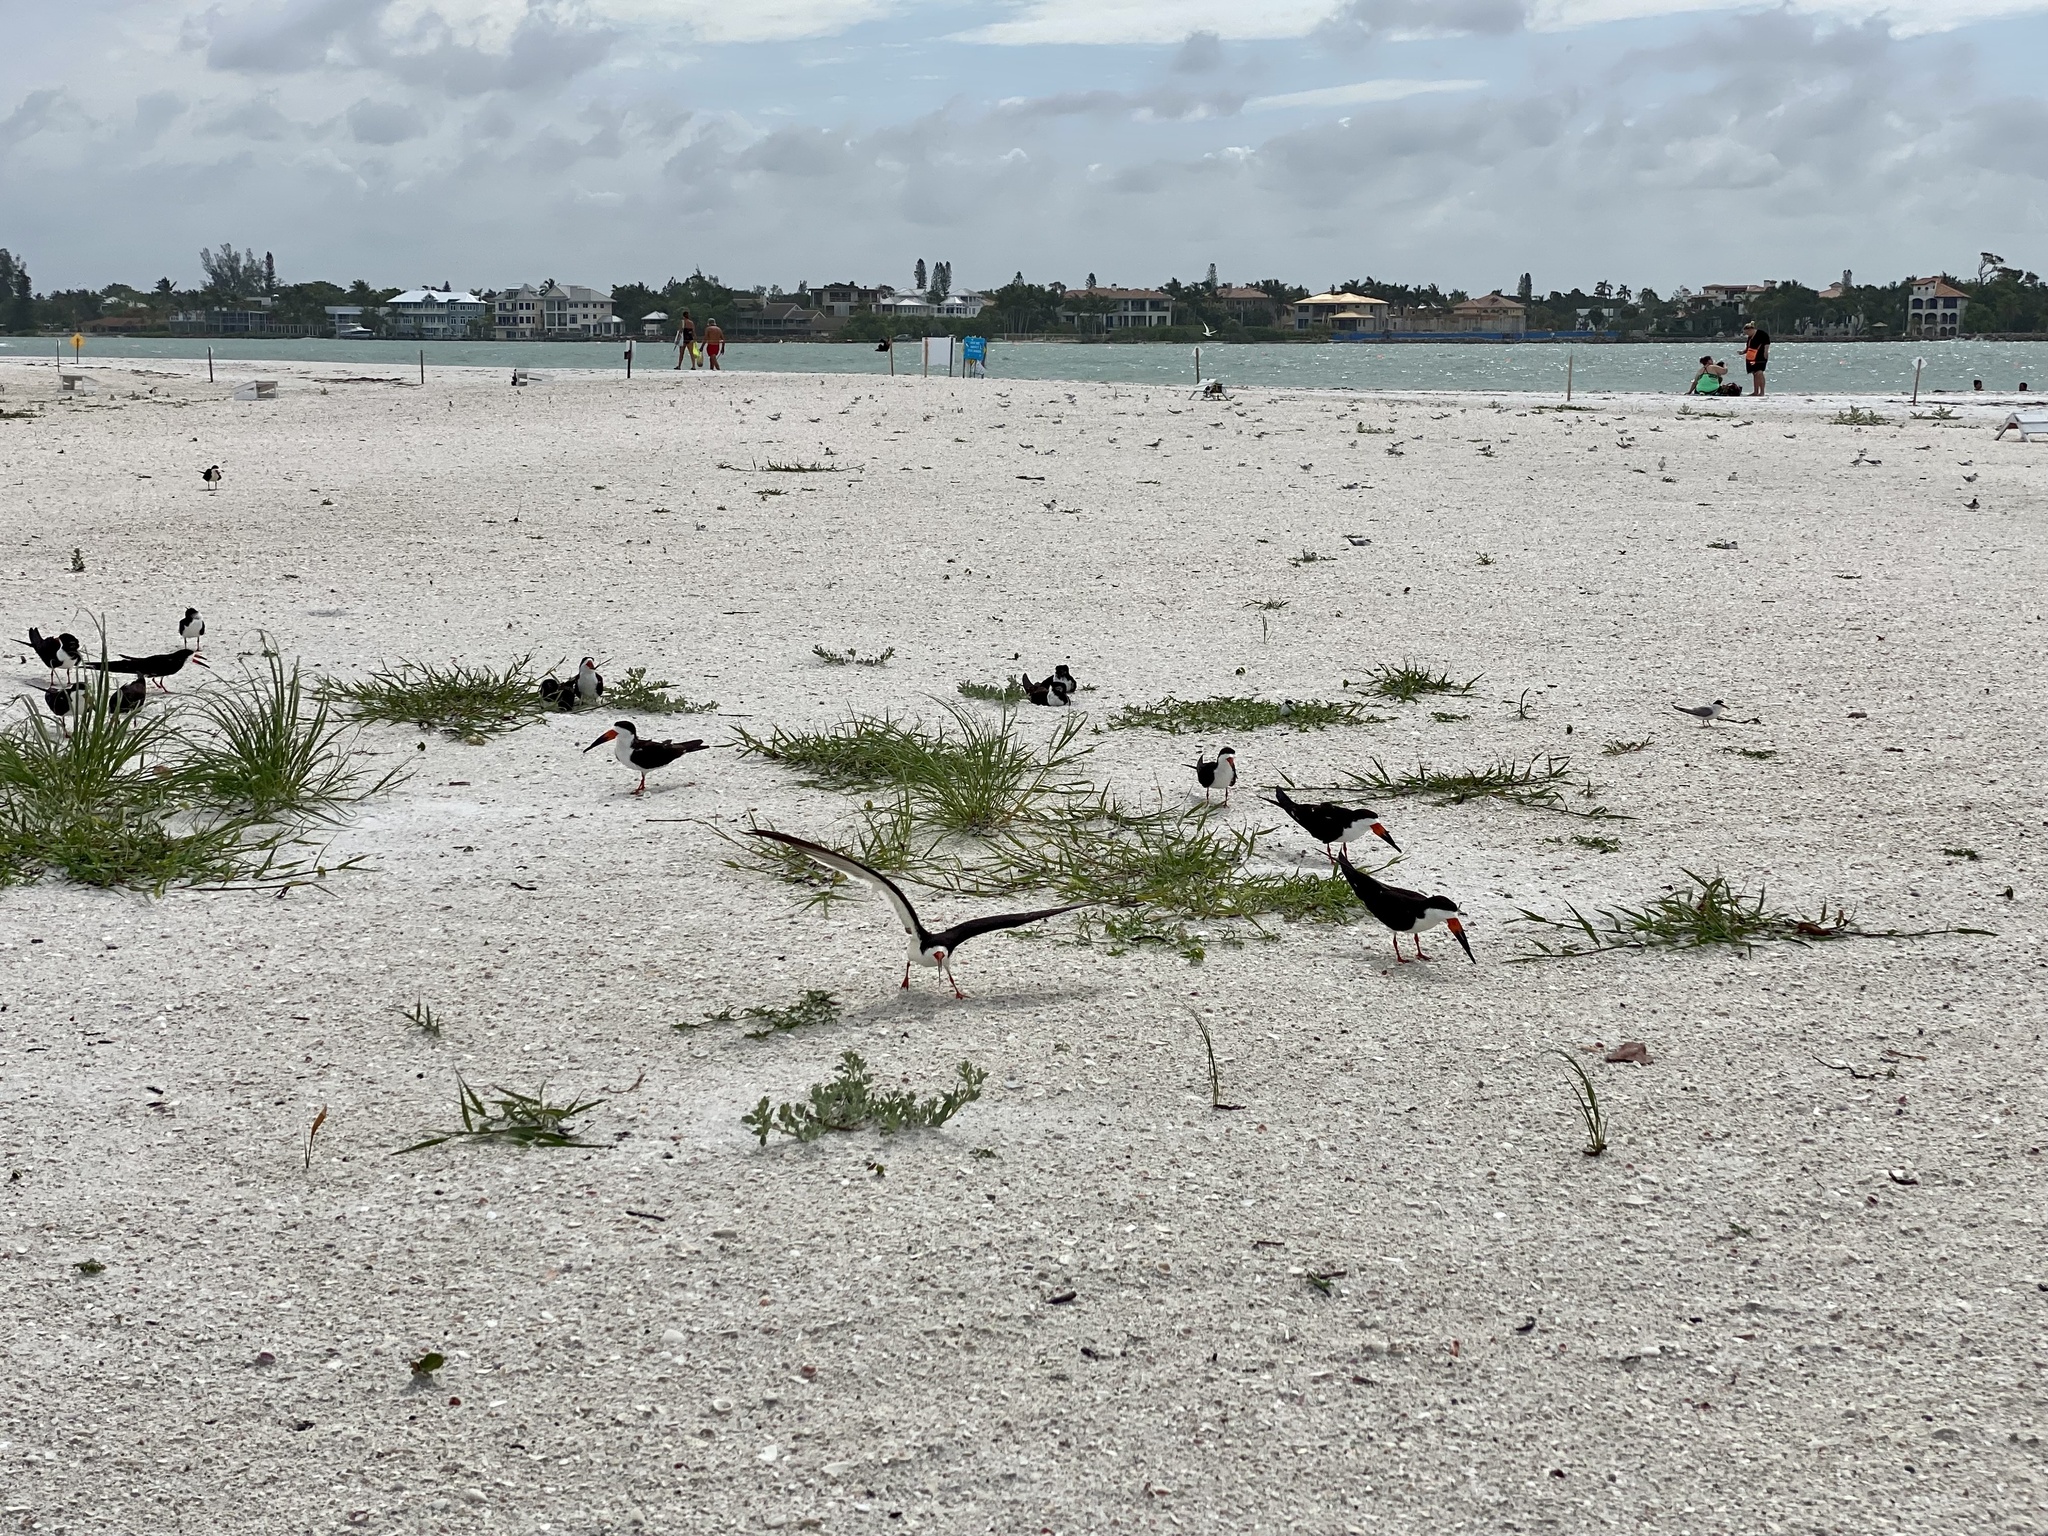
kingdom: Animalia
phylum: Chordata
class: Aves
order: Charadriiformes
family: Laridae
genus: Rynchops
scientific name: Rynchops niger
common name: Black skimmer
